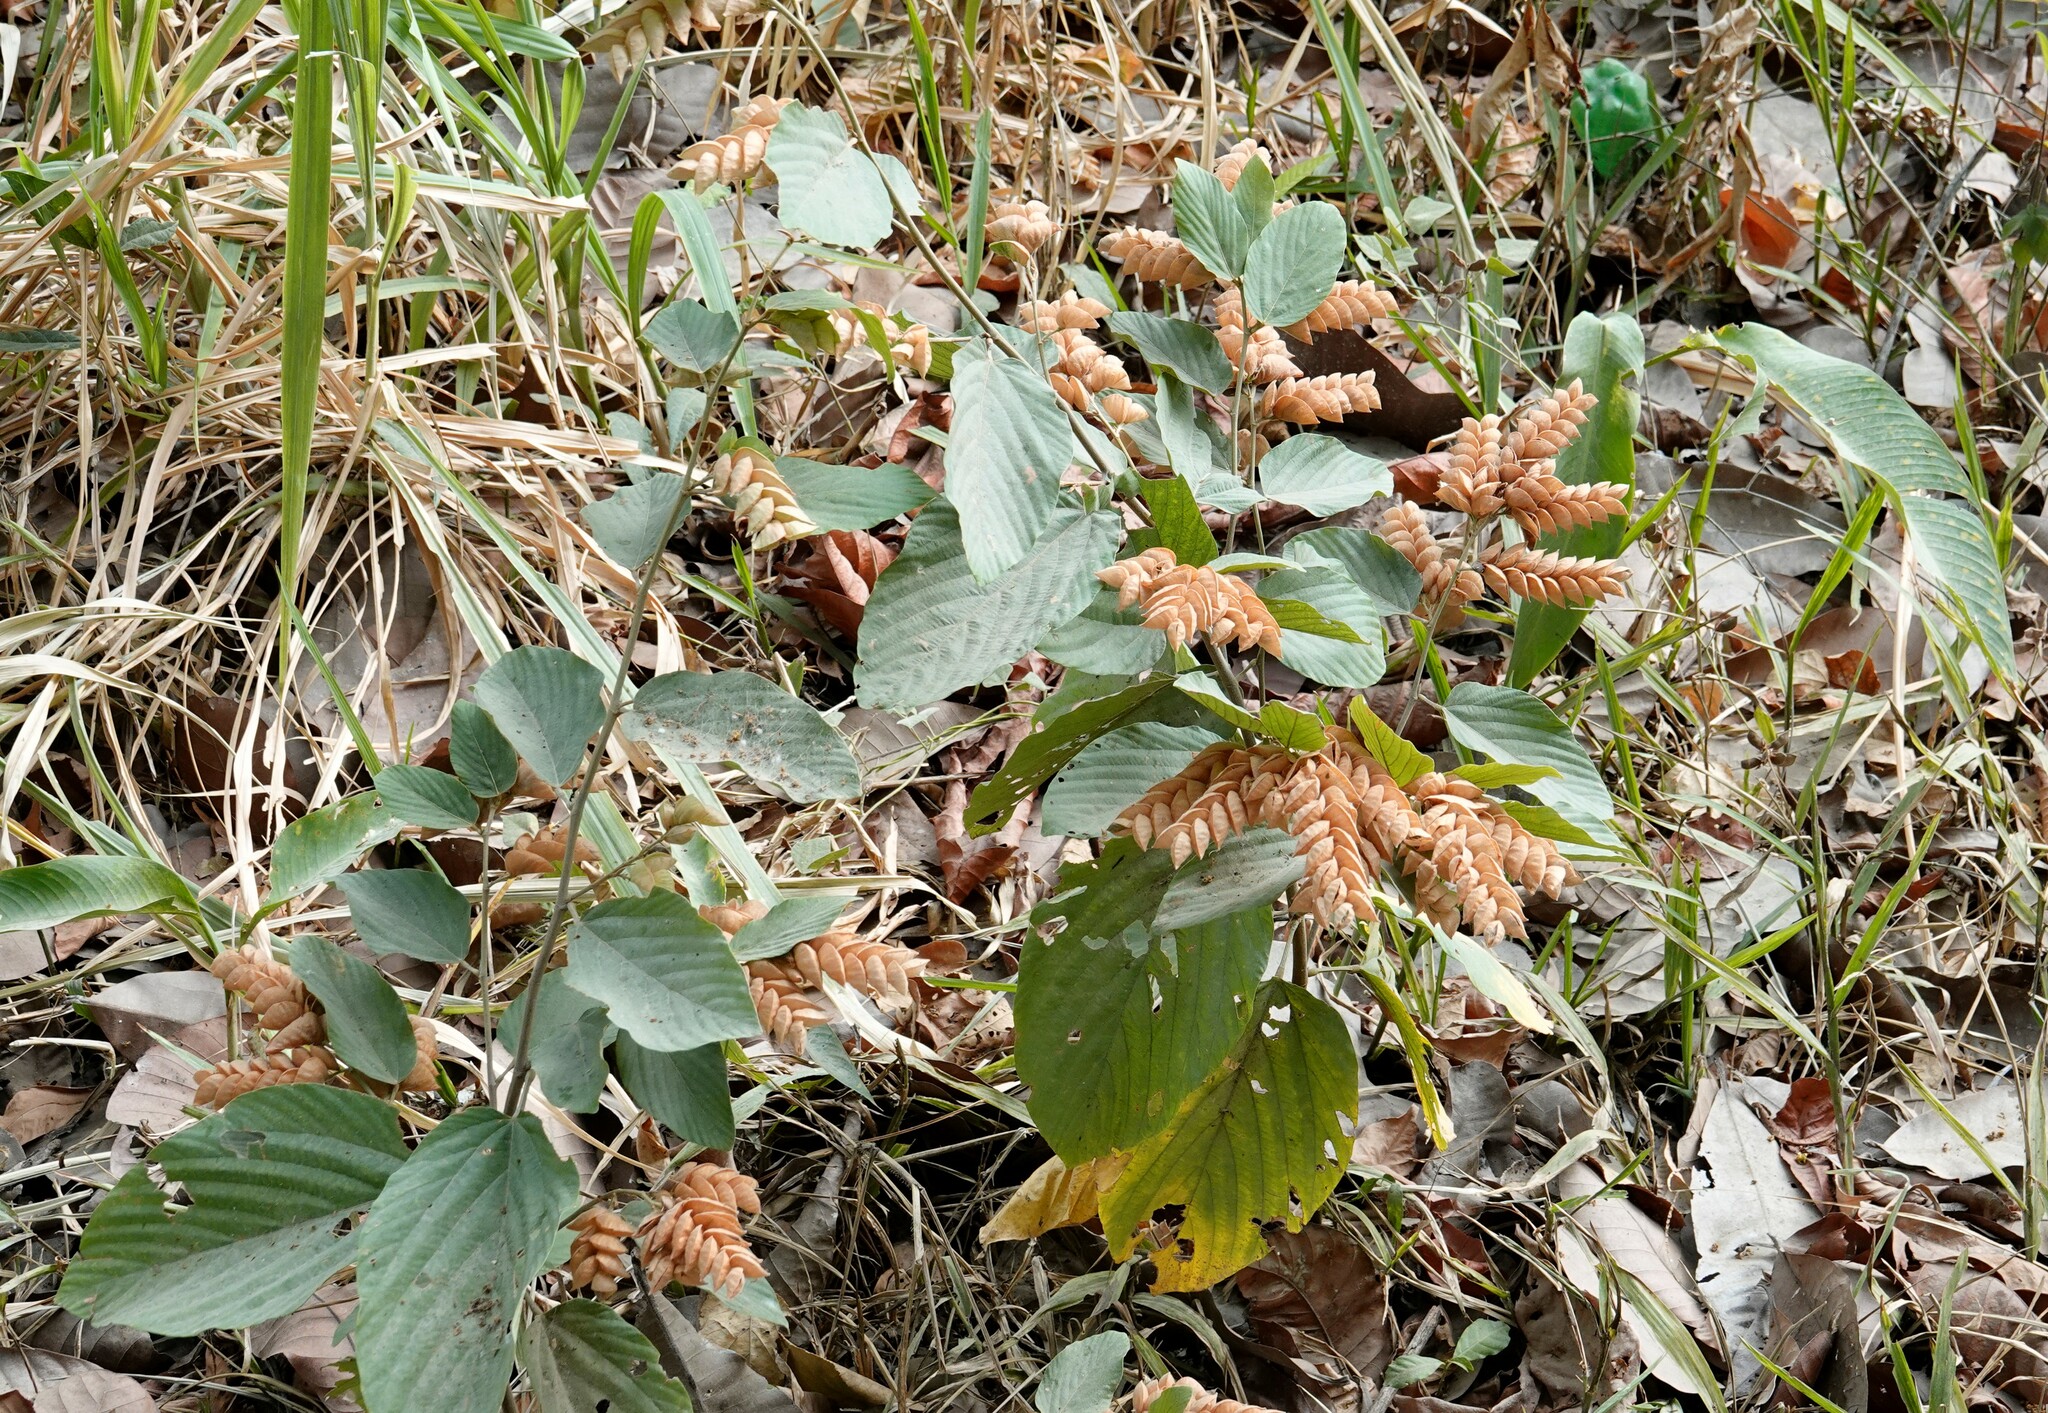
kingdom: Plantae
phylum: Tracheophyta
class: Magnoliopsida
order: Fabales
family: Fabaceae
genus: Flemingia
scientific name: Flemingia strobilifera
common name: Wild hops
